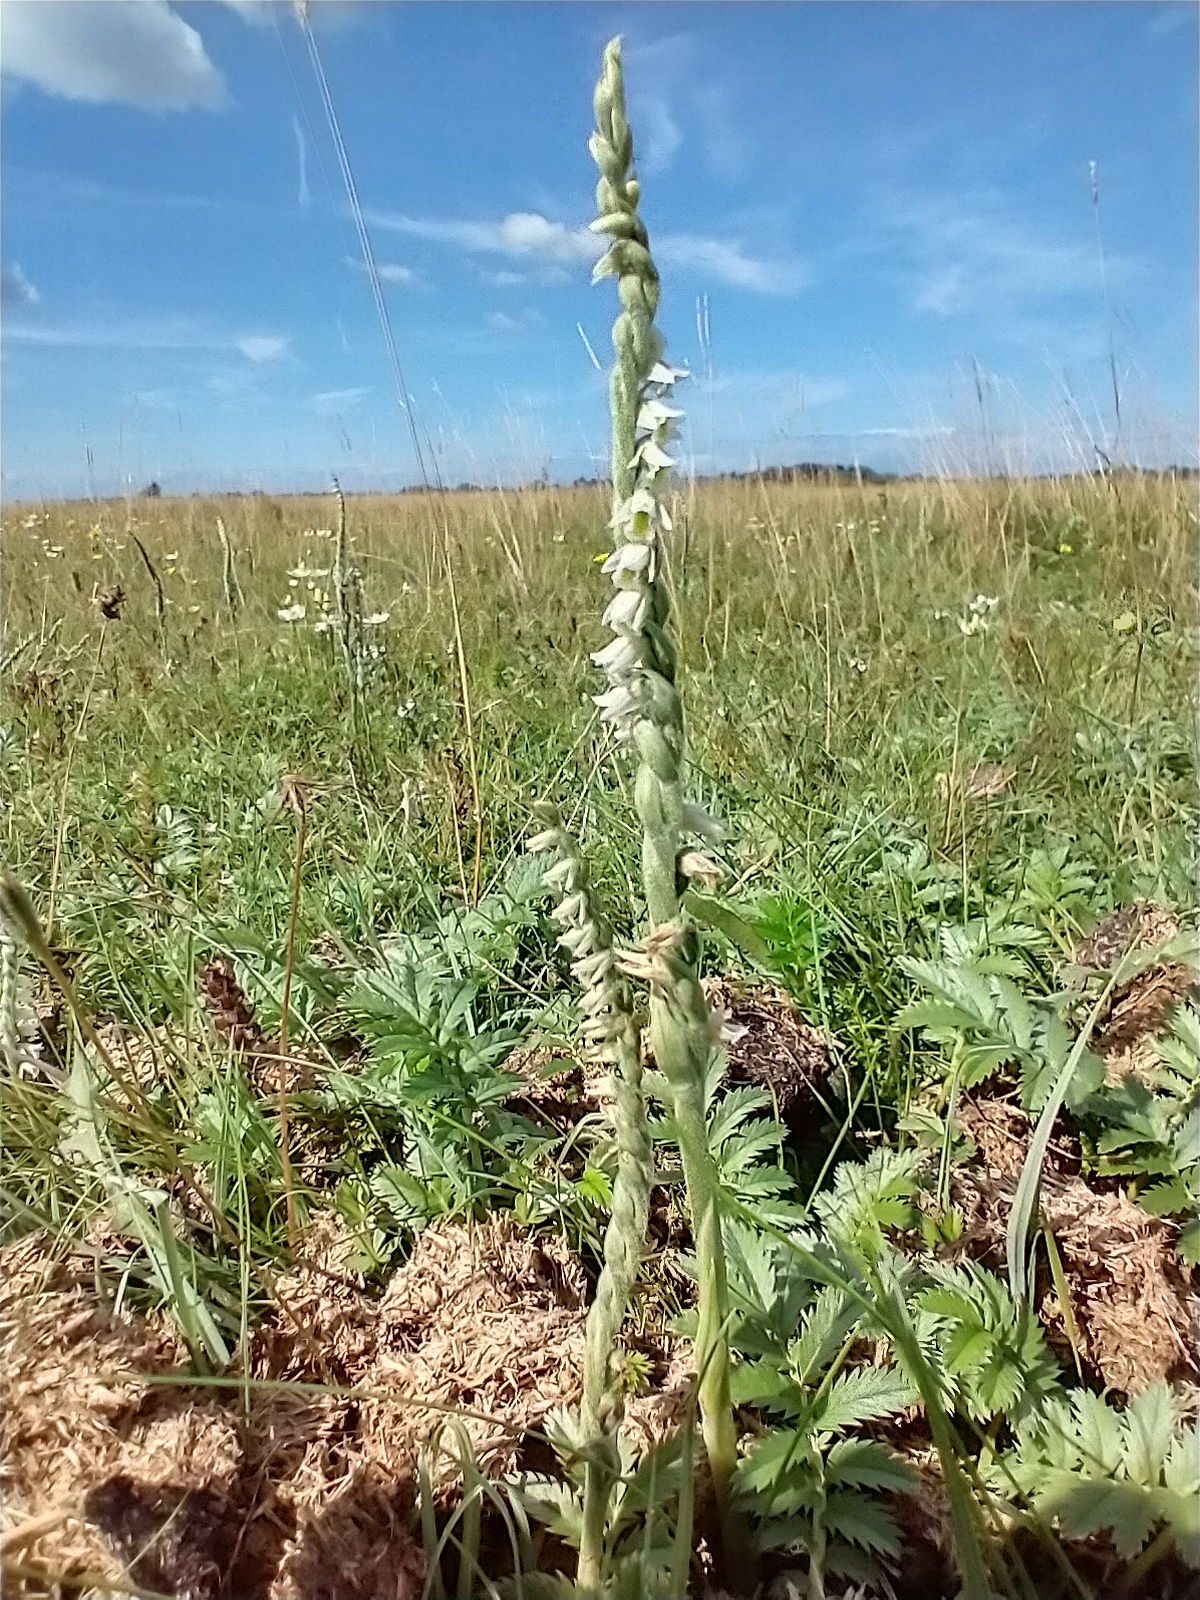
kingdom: Plantae
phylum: Tracheophyta
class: Liliopsida
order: Asparagales
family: Orchidaceae
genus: Spiranthes
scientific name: Spiranthes spiralis
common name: Autumn lady's-tresses
